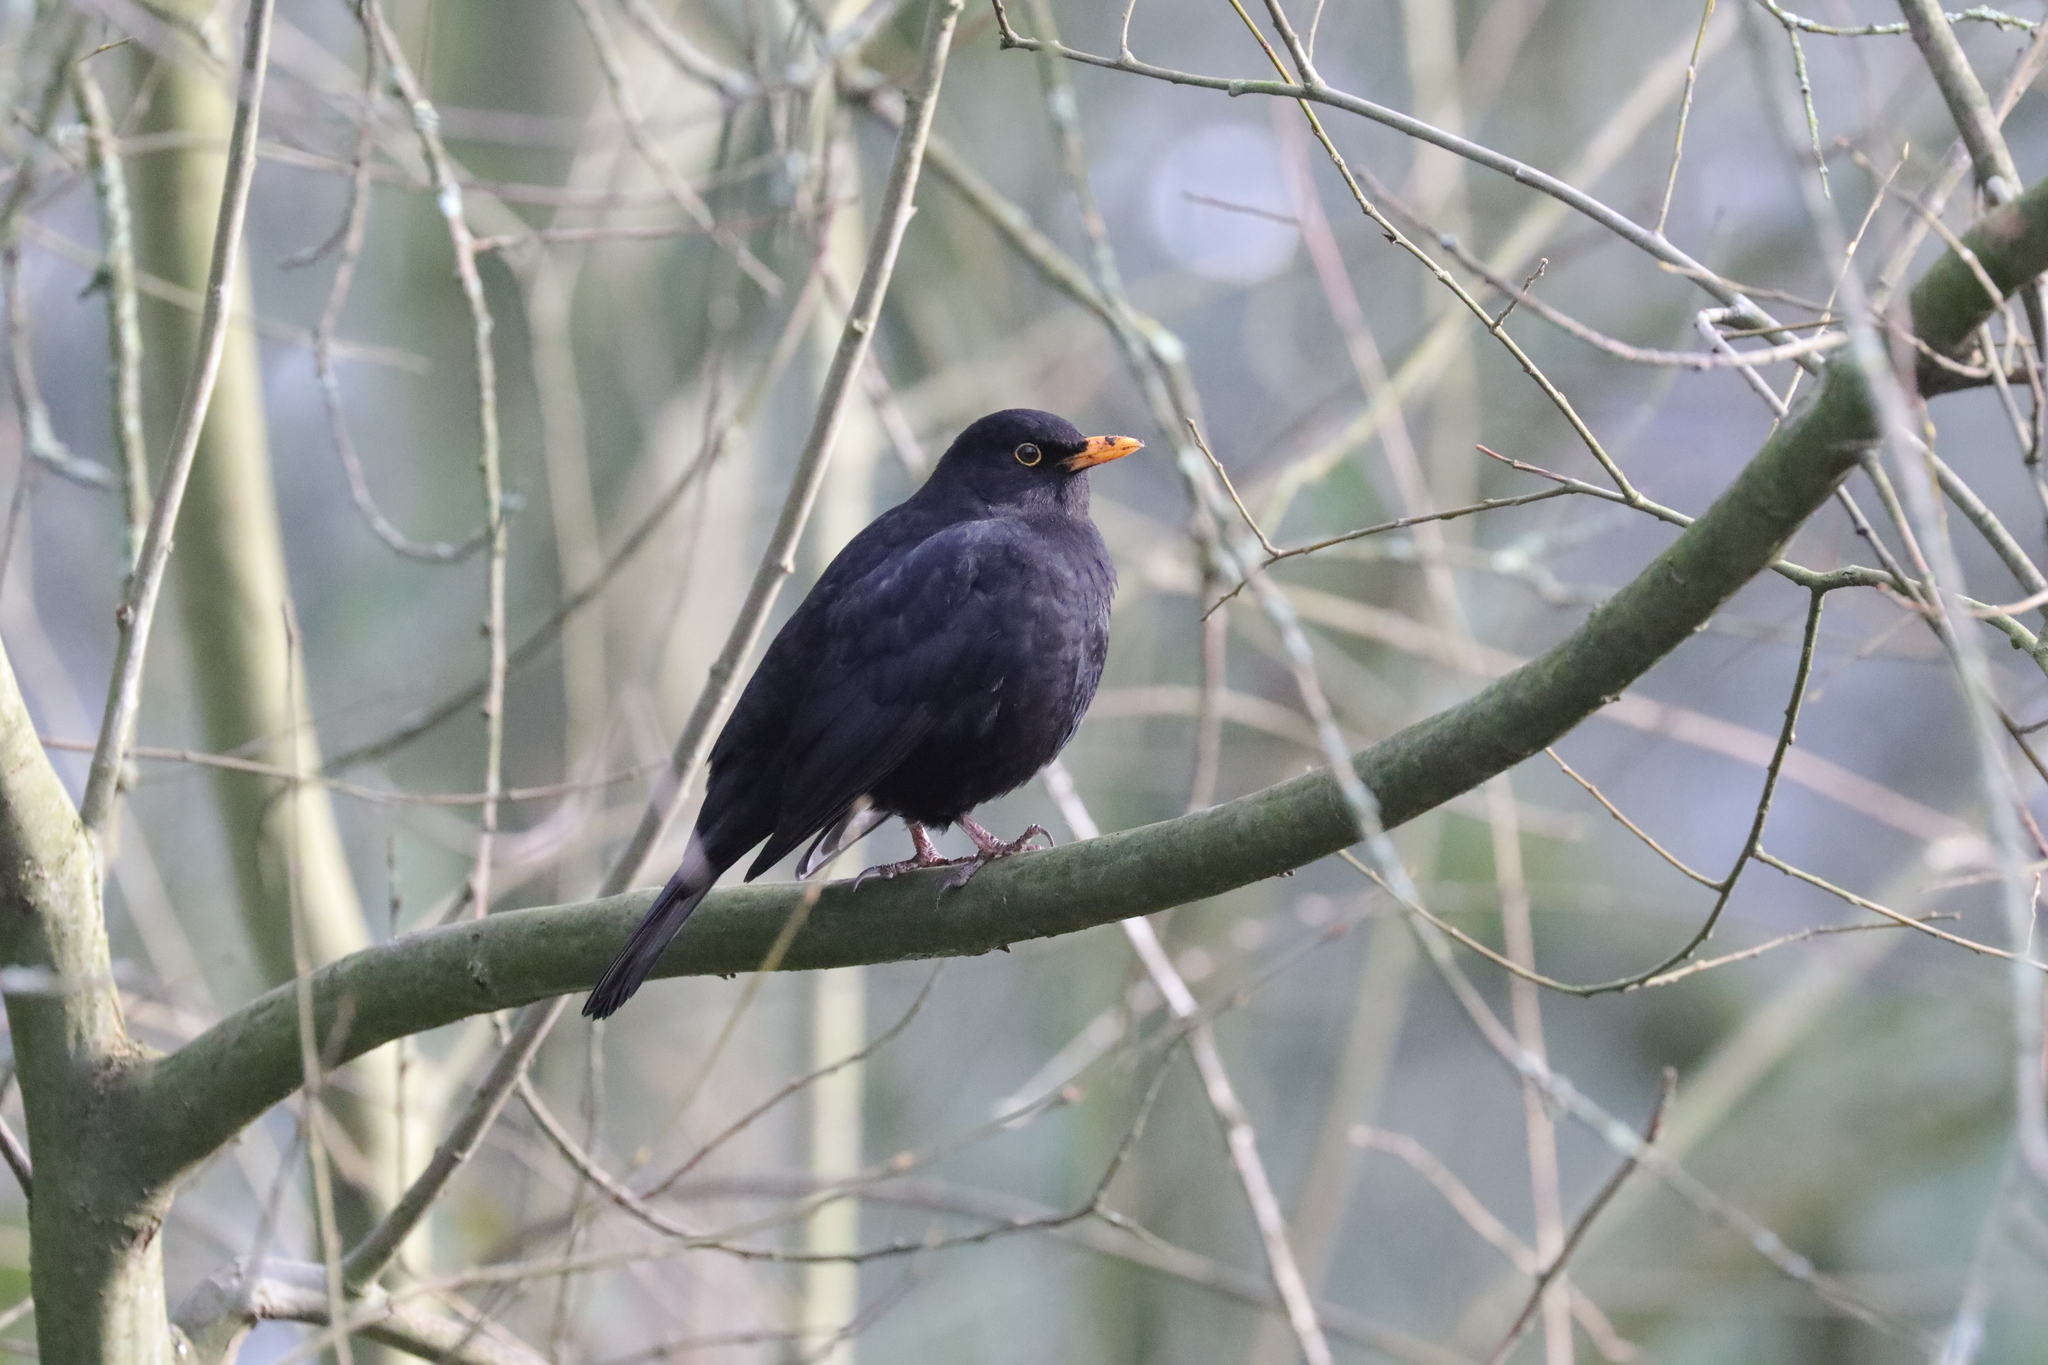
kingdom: Animalia
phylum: Chordata
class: Aves
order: Passeriformes
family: Turdidae
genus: Turdus
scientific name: Turdus merula
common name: Common blackbird
